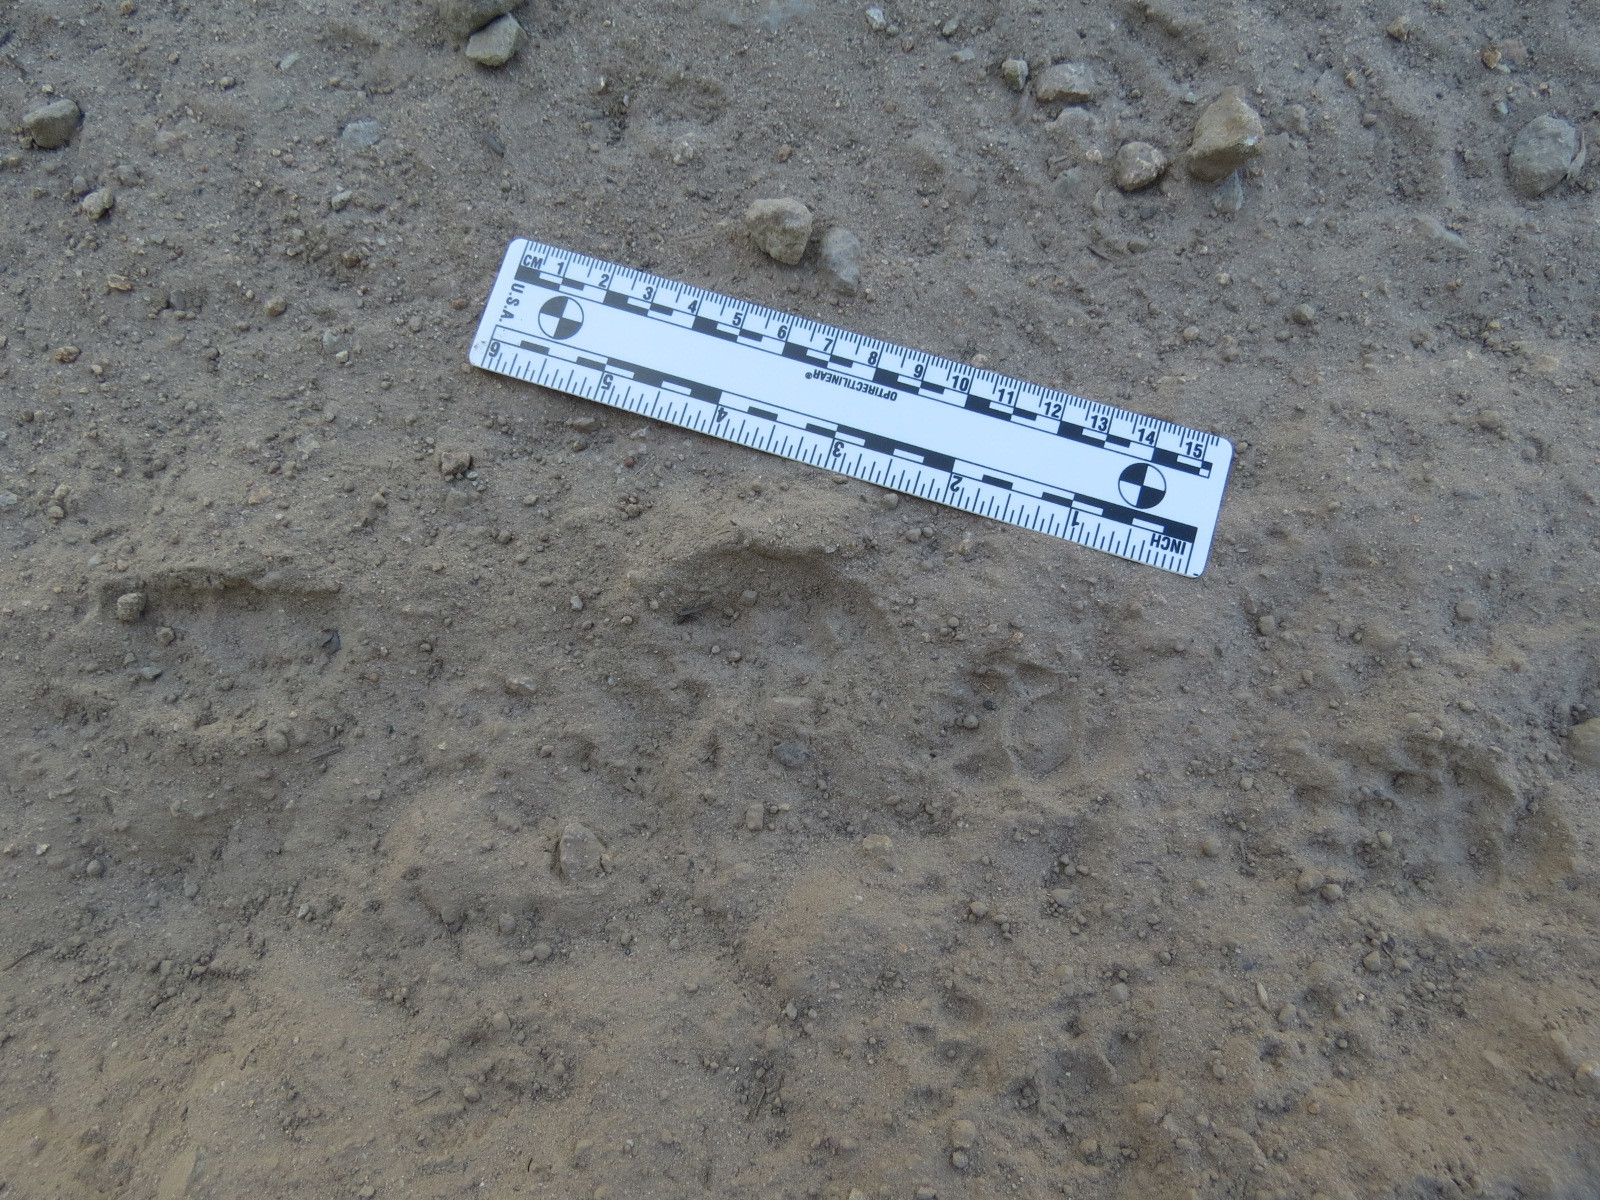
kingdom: Animalia
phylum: Chordata
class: Mammalia
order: Carnivora
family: Mephitidae
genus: Mephitis
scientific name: Mephitis mephitis
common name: Striped skunk
